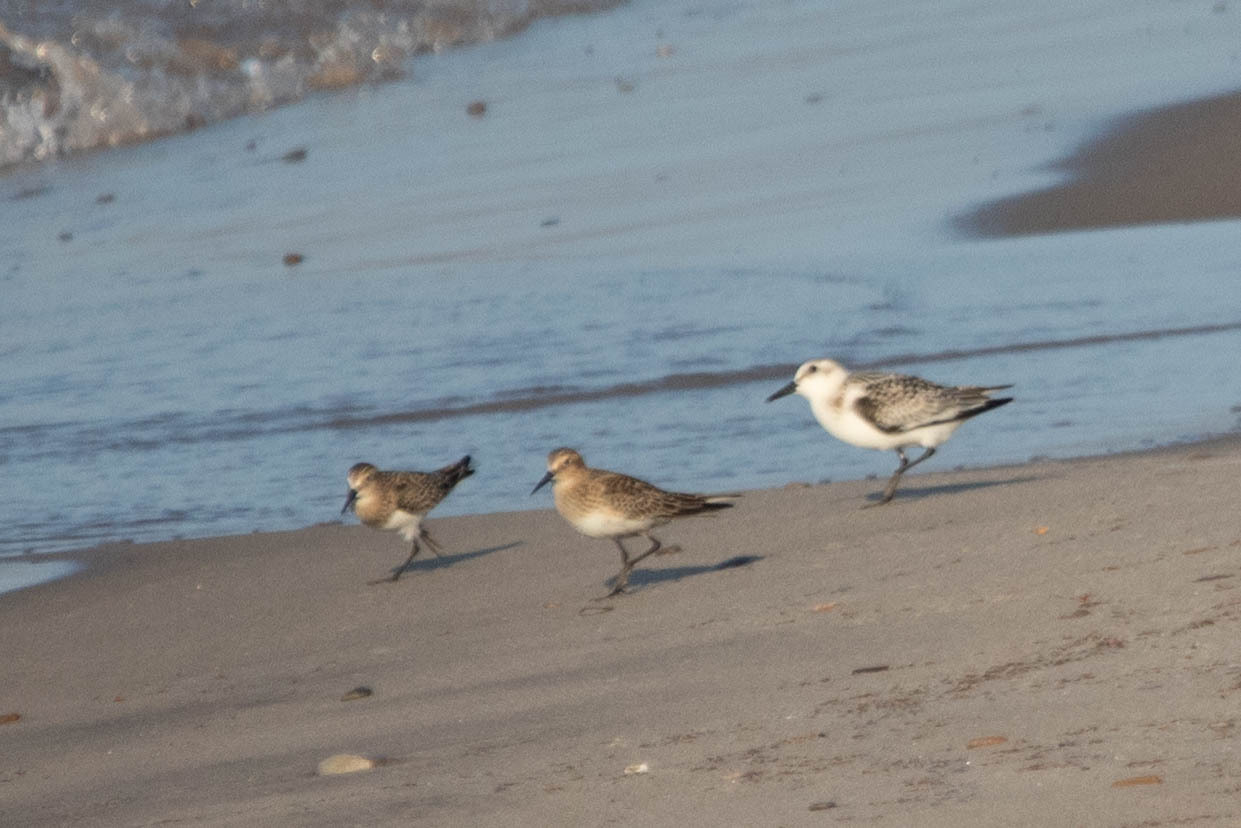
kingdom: Animalia
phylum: Chordata
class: Aves
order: Charadriiformes
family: Scolopacidae
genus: Calidris
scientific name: Calidris bairdii
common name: Baird's sandpiper
